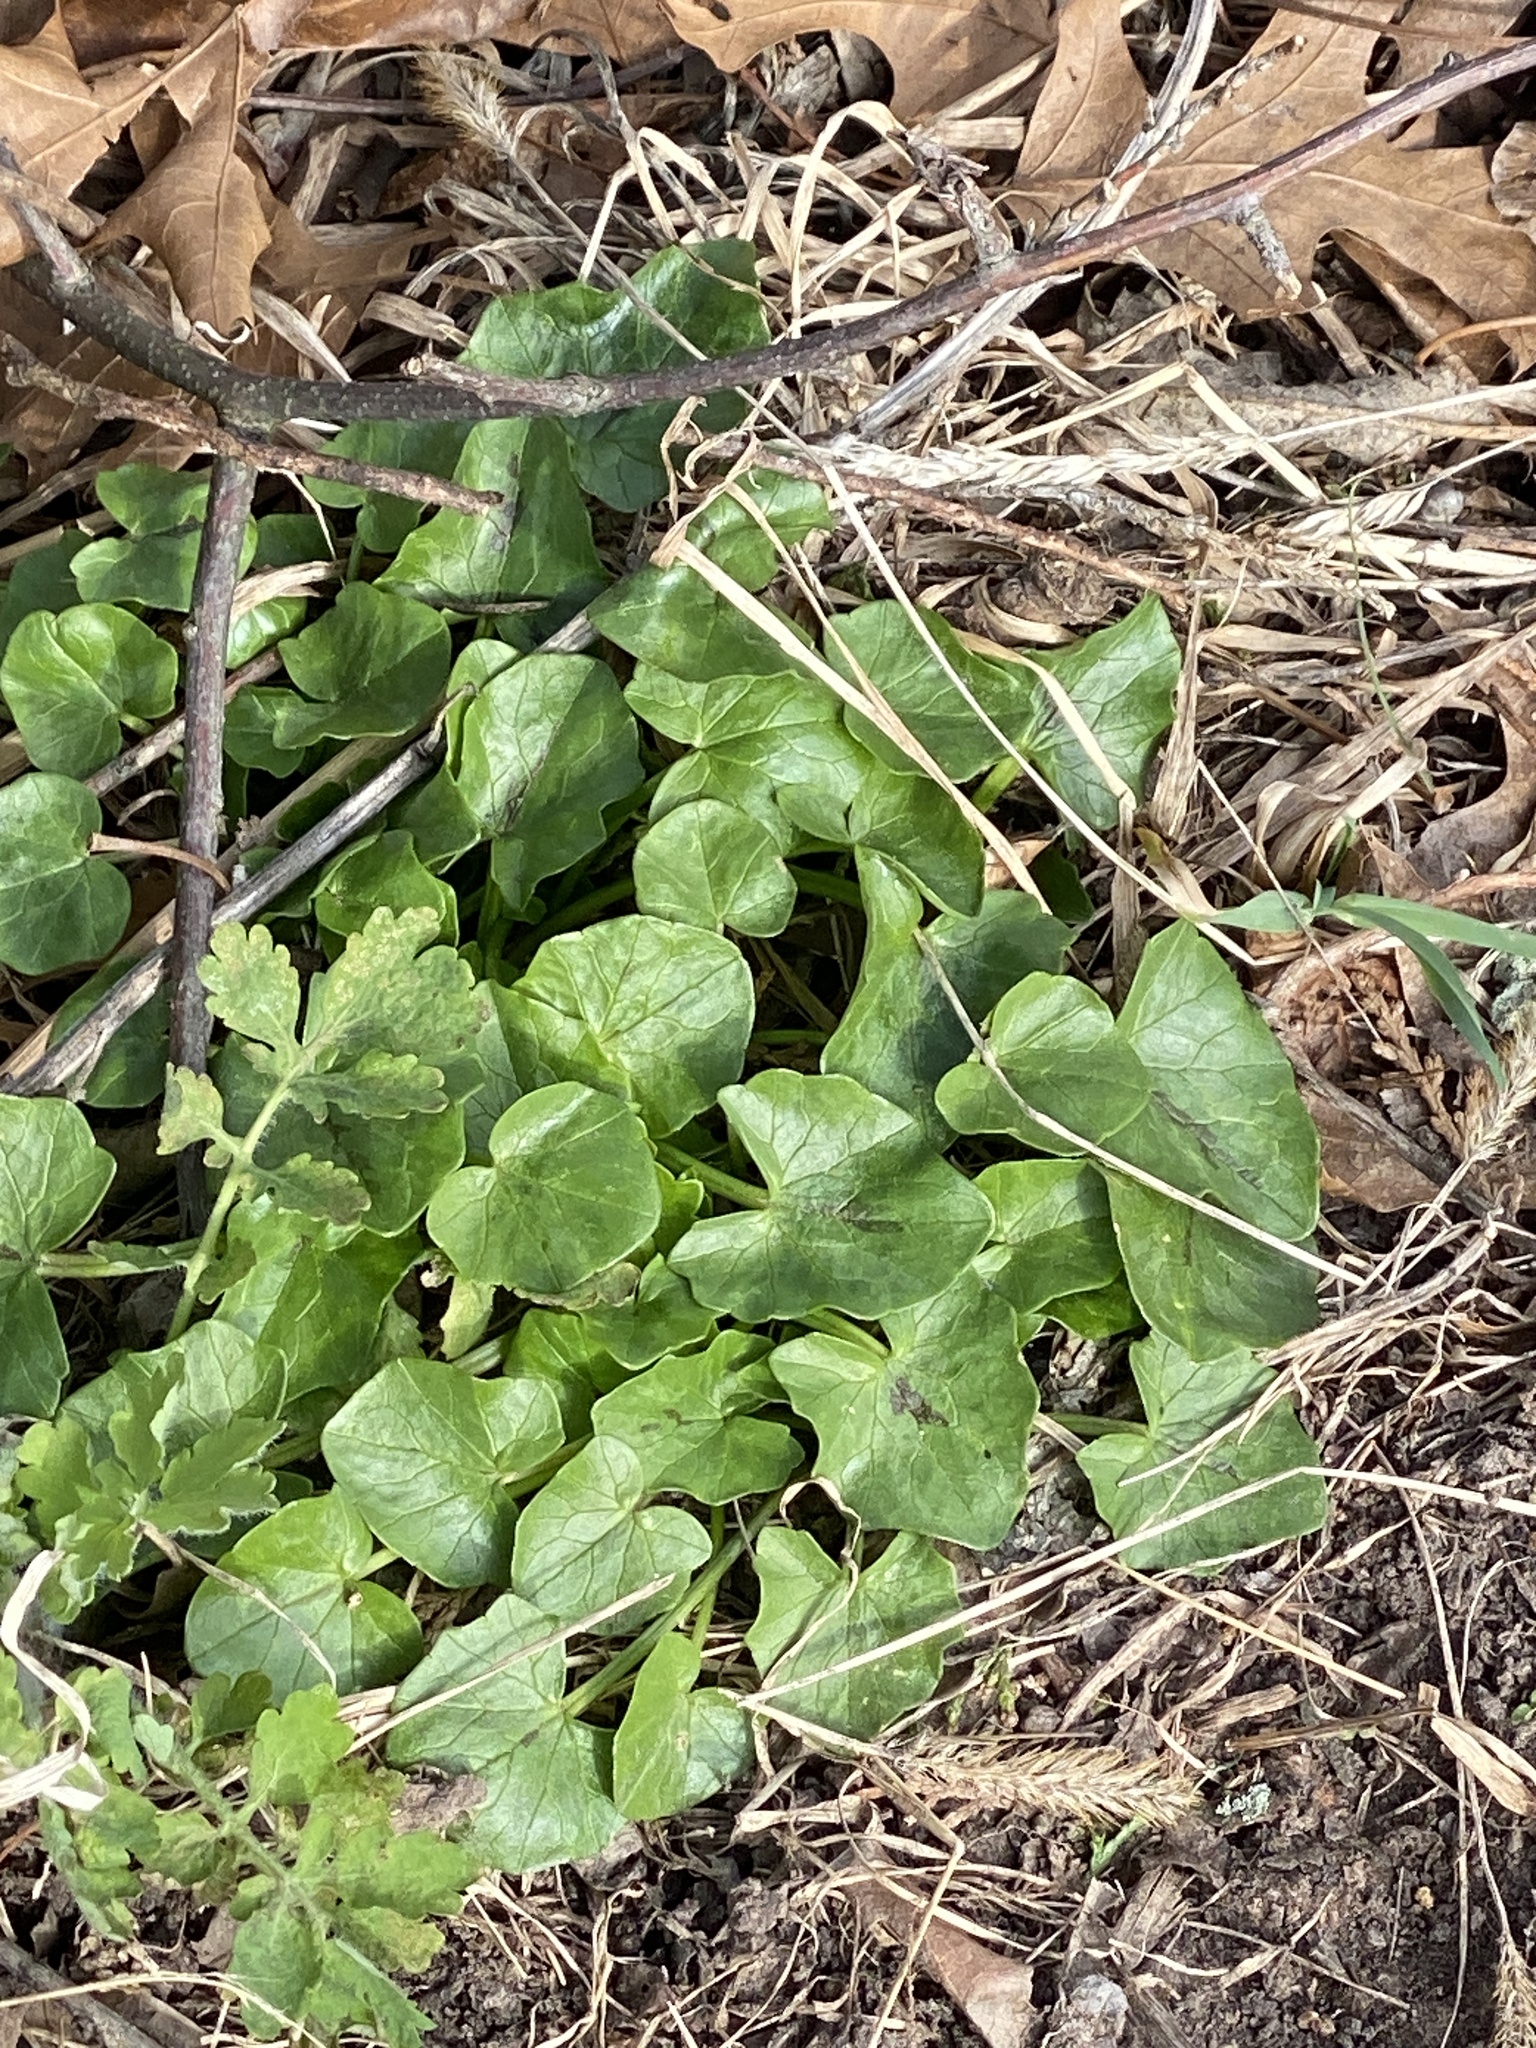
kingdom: Plantae
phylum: Tracheophyta
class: Magnoliopsida
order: Ranunculales
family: Ranunculaceae
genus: Ficaria
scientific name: Ficaria verna
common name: Lesser celandine
